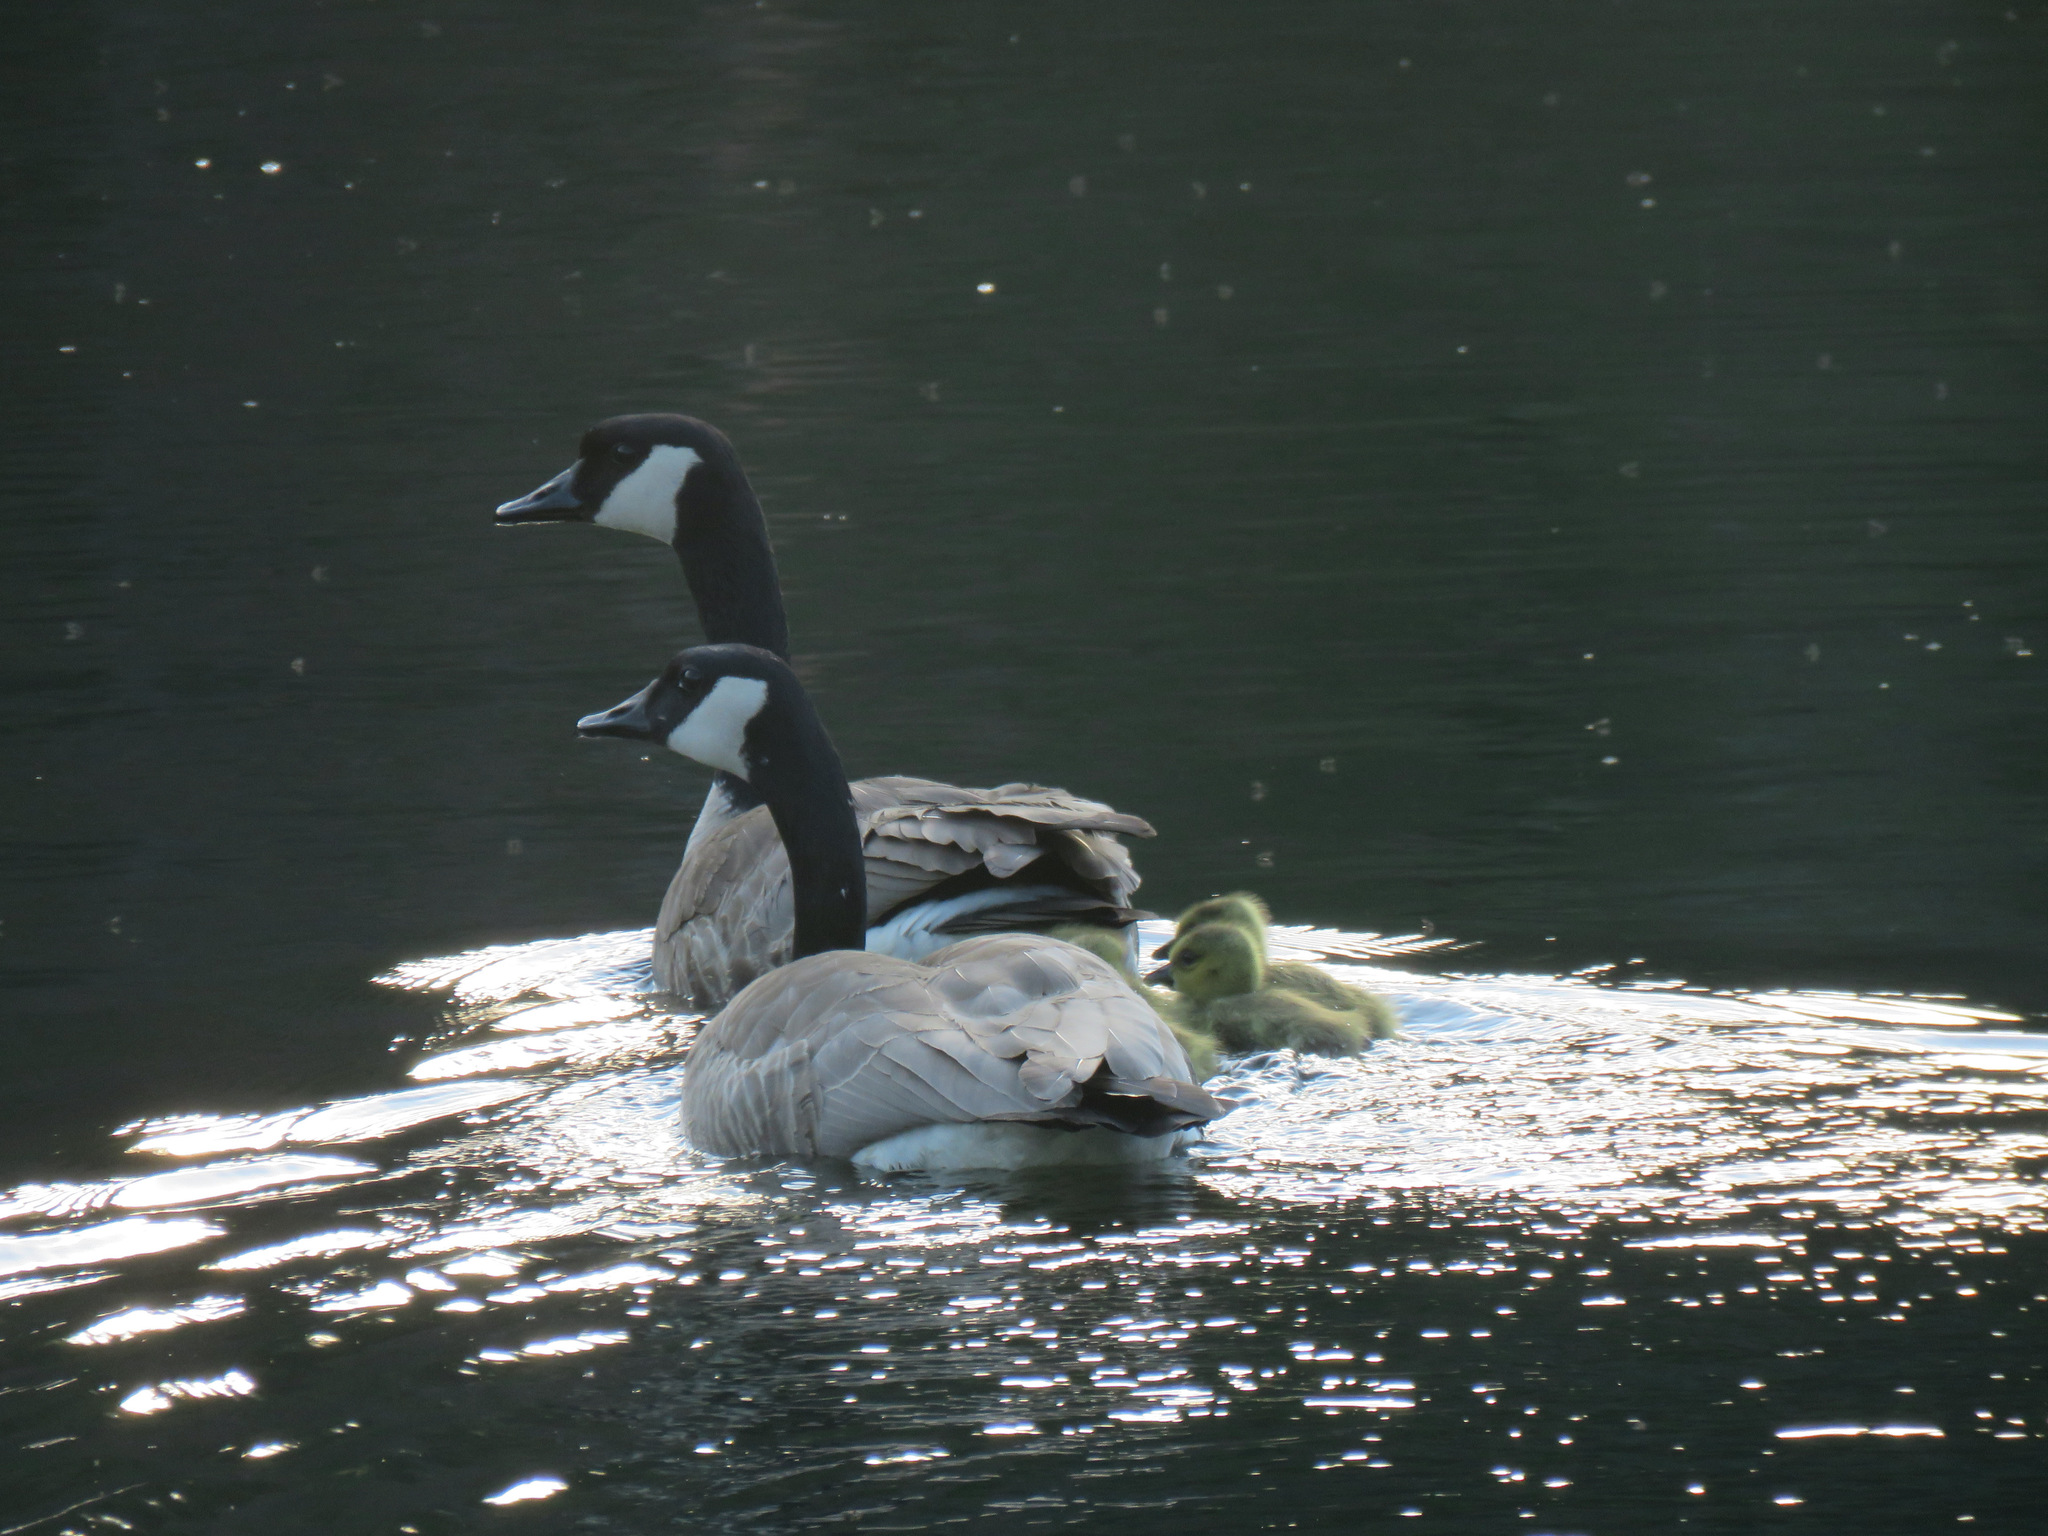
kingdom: Animalia
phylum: Chordata
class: Aves
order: Anseriformes
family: Anatidae
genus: Branta
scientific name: Branta canadensis
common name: Canada goose
